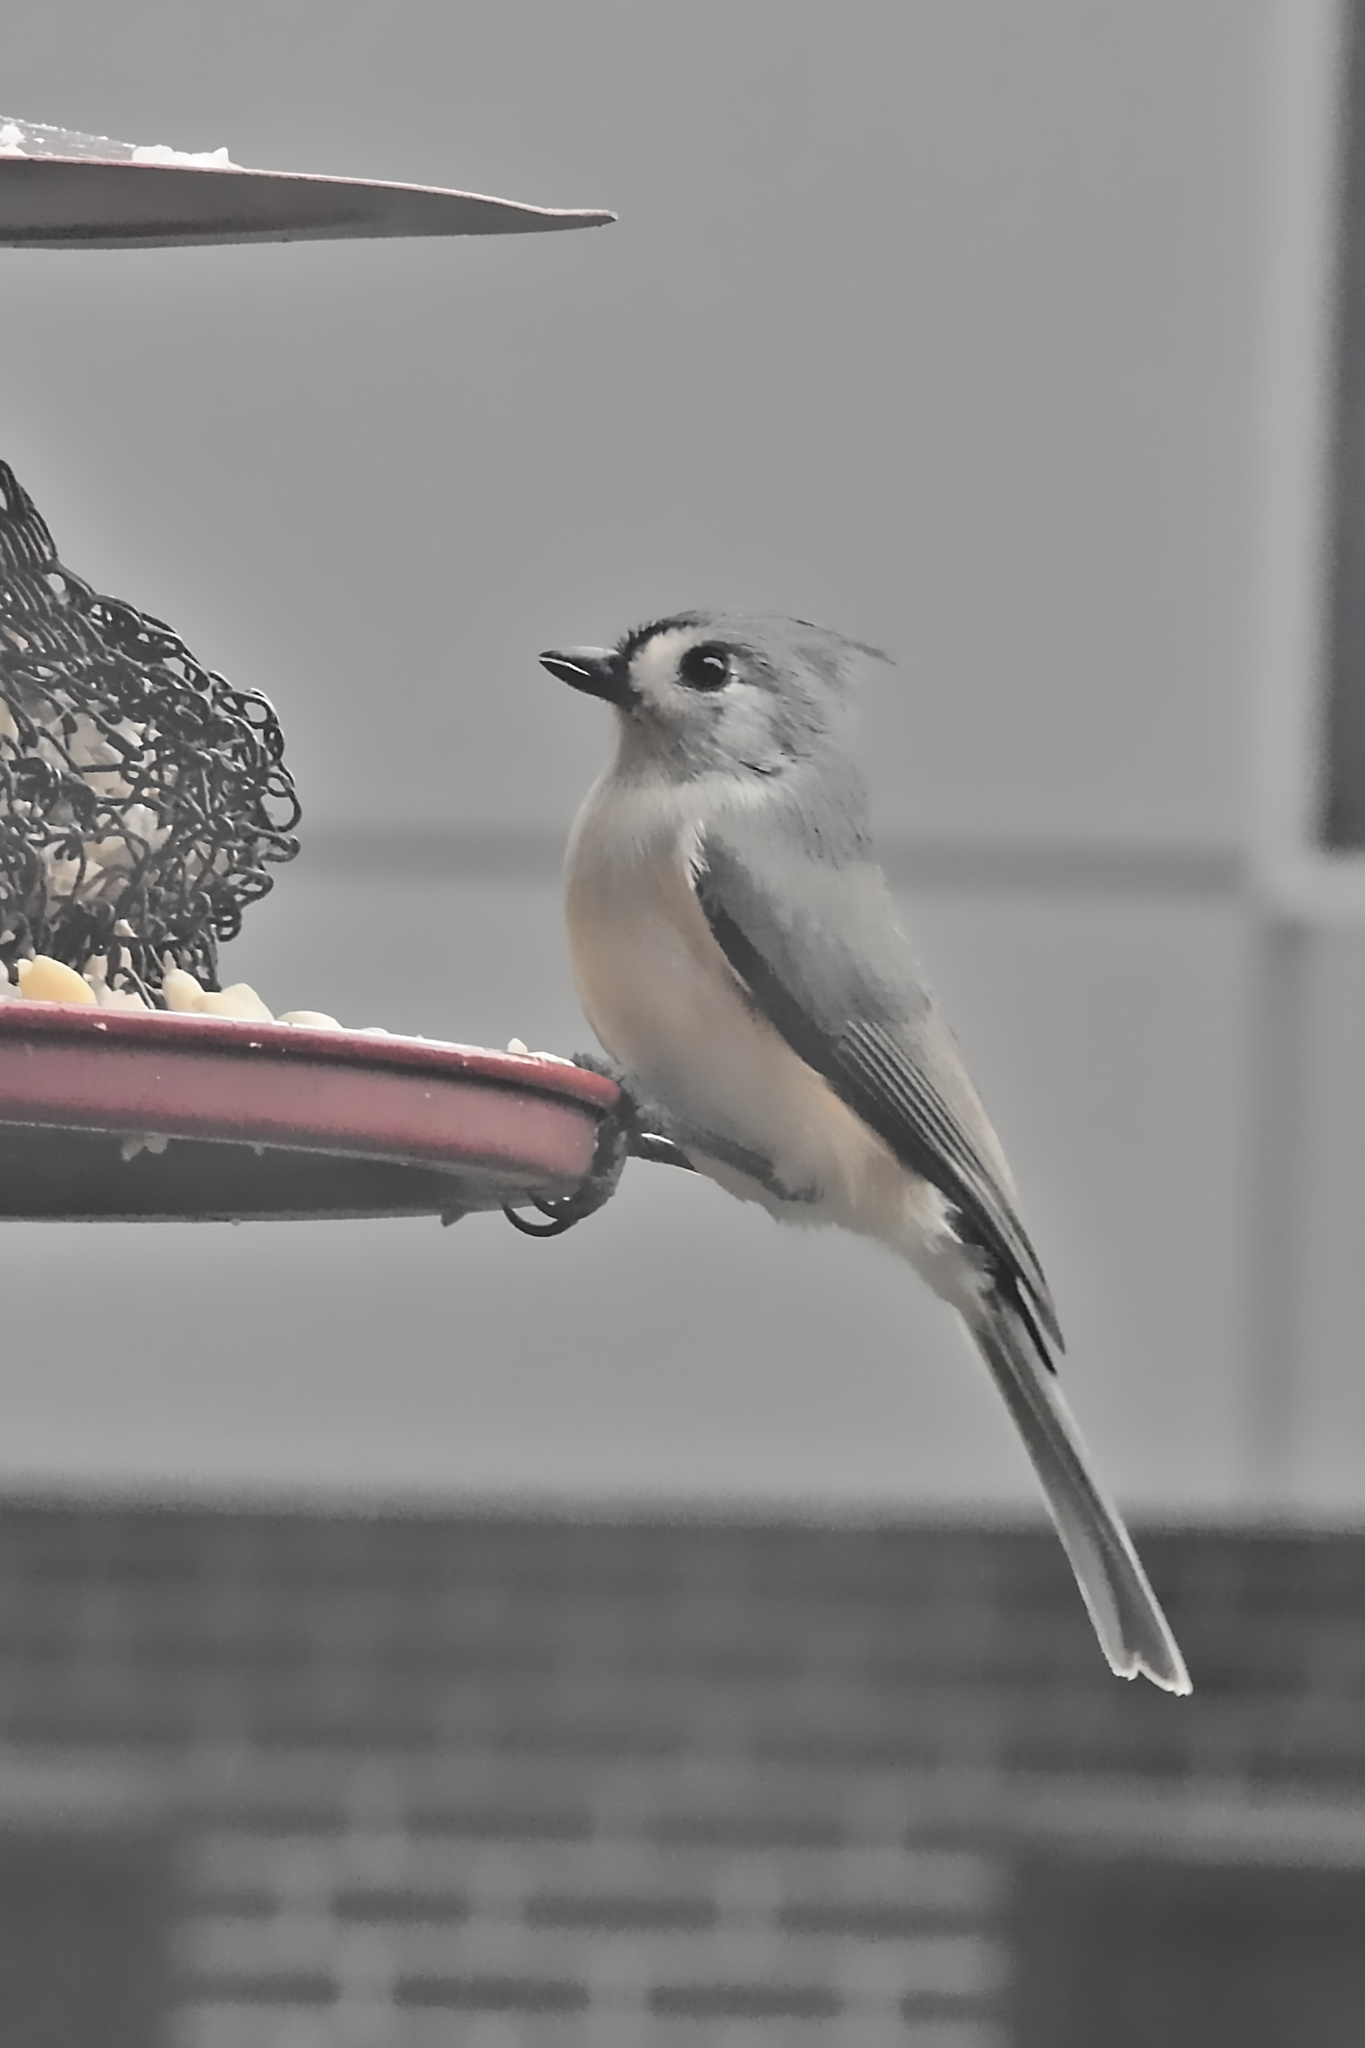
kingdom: Animalia
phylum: Chordata
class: Aves
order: Passeriformes
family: Paridae
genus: Baeolophus
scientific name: Baeolophus bicolor
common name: Tufted titmouse
